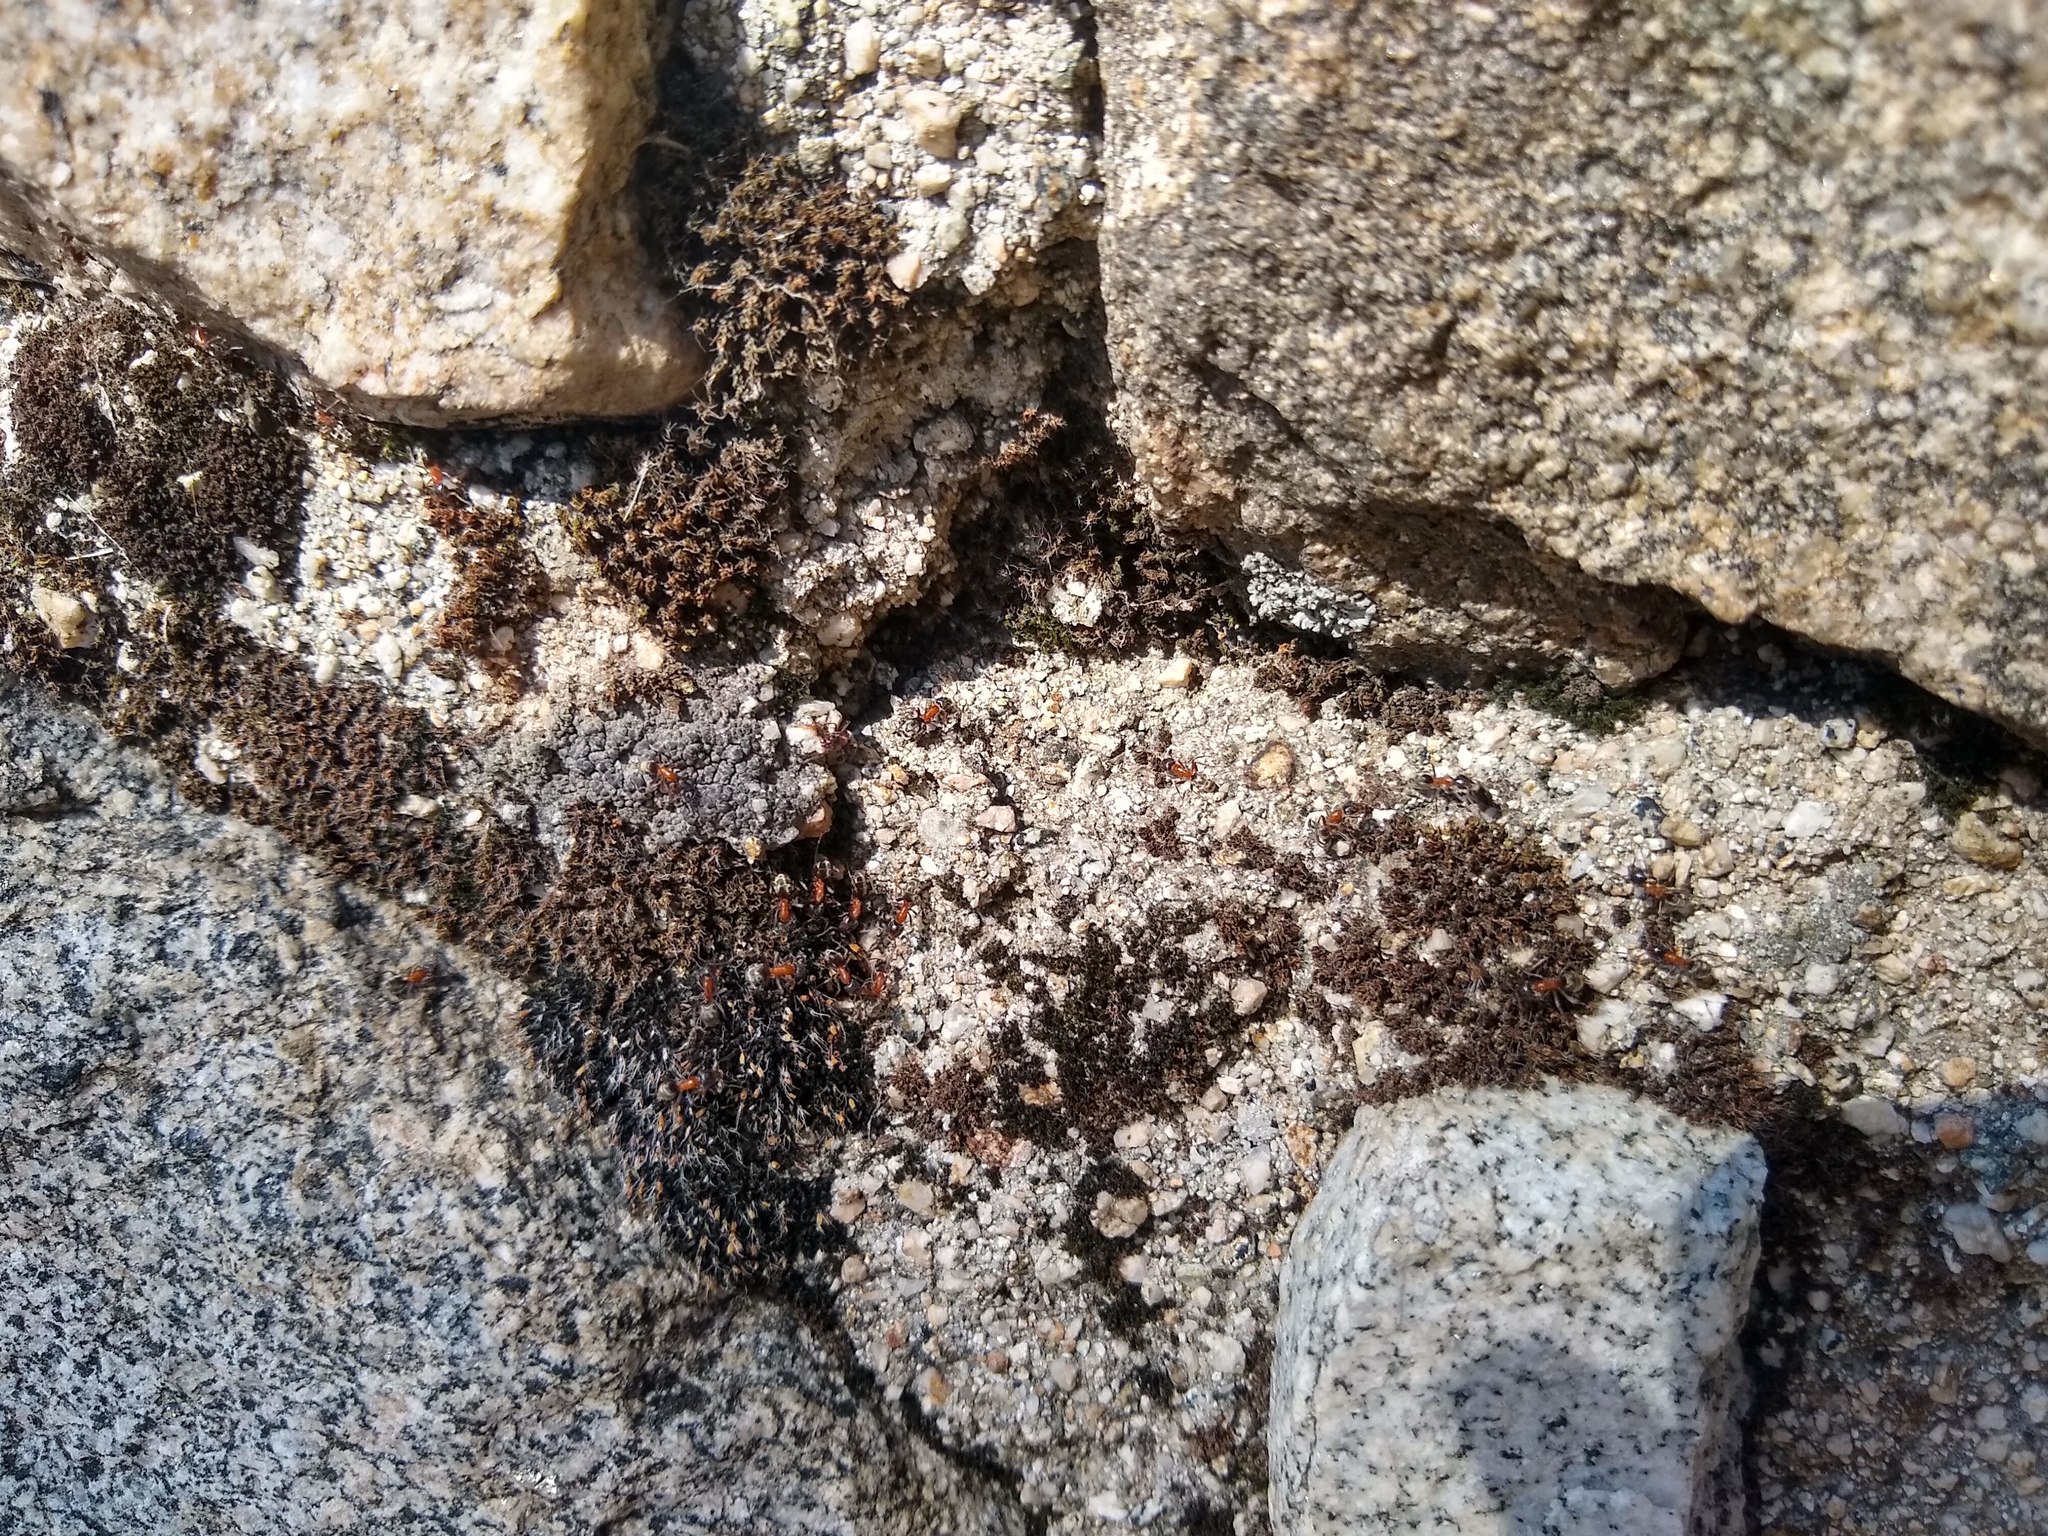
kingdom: Animalia
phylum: Arthropoda
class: Insecta
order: Hymenoptera
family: Formicidae
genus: Liometopum
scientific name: Liometopum occidentale
